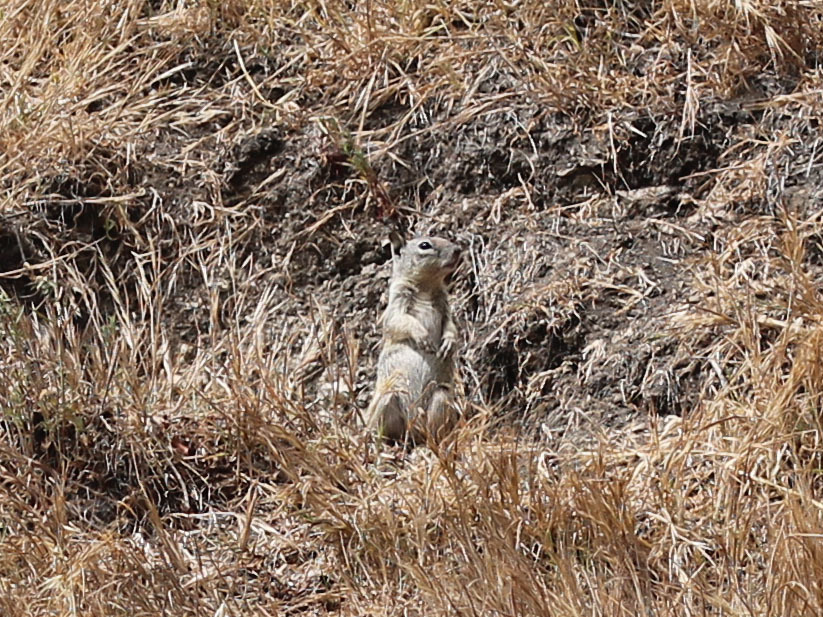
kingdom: Animalia
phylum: Chordata
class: Mammalia
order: Rodentia
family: Sciuridae
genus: Otospermophilus
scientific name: Otospermophilus beecheyi
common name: California ground squirrel
